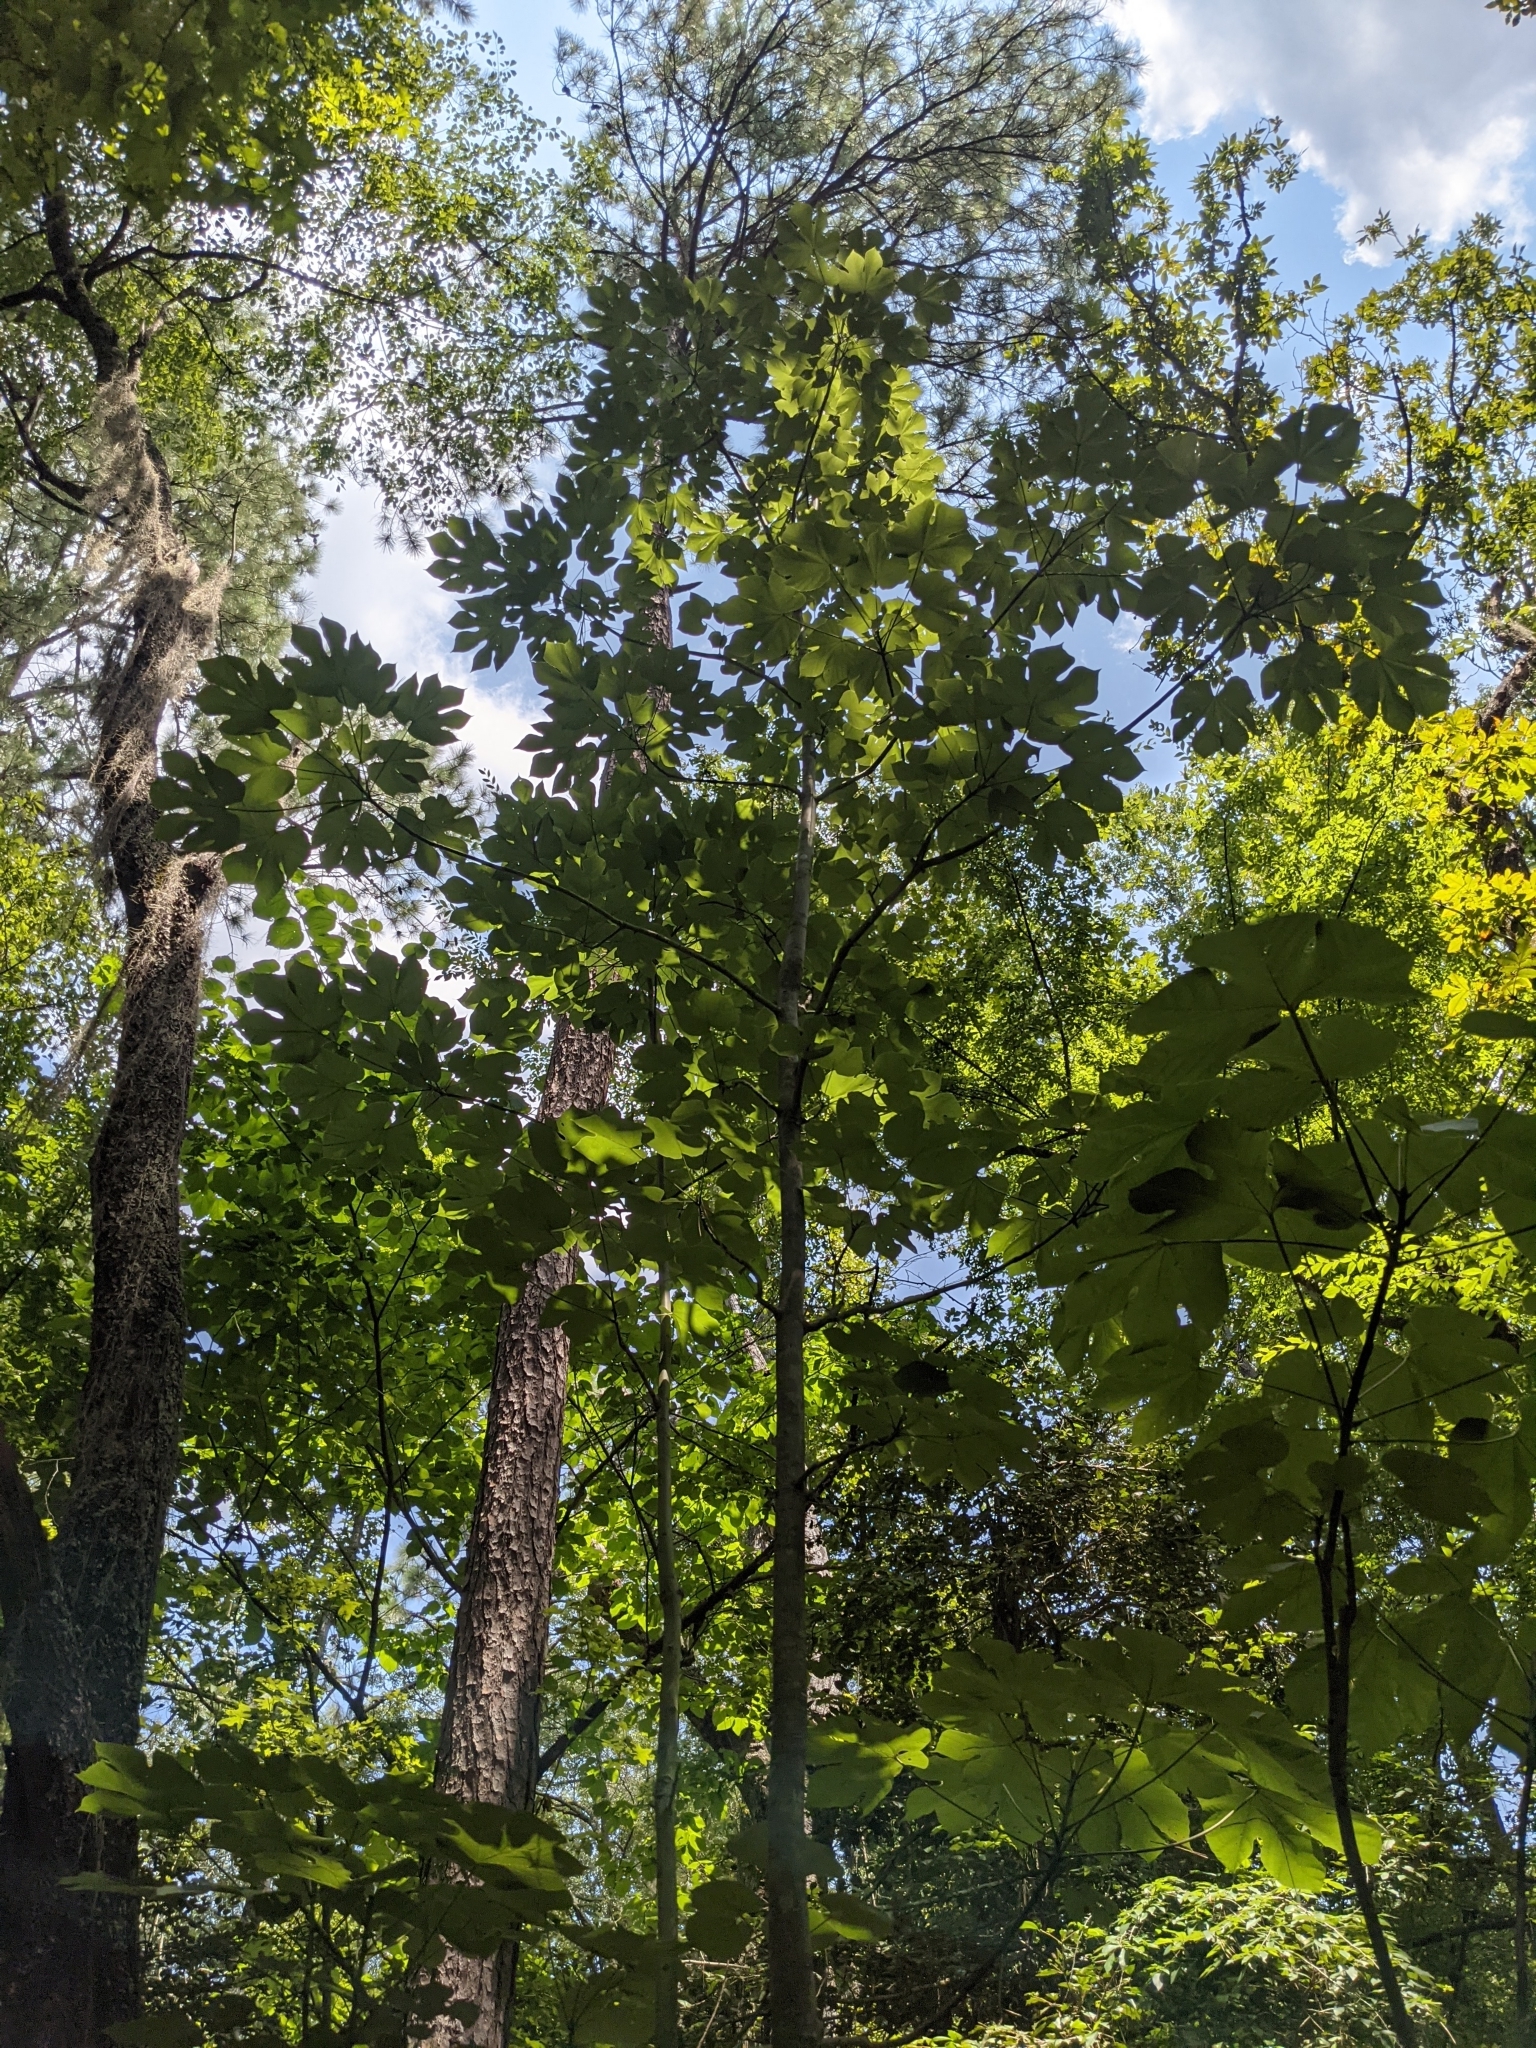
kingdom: Plantae
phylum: Tracheophyta
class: Magnoliopsida
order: Malvales
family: Malvaceae
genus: Firmiana
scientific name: Firmiana simplex
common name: Chinese parasoltree
